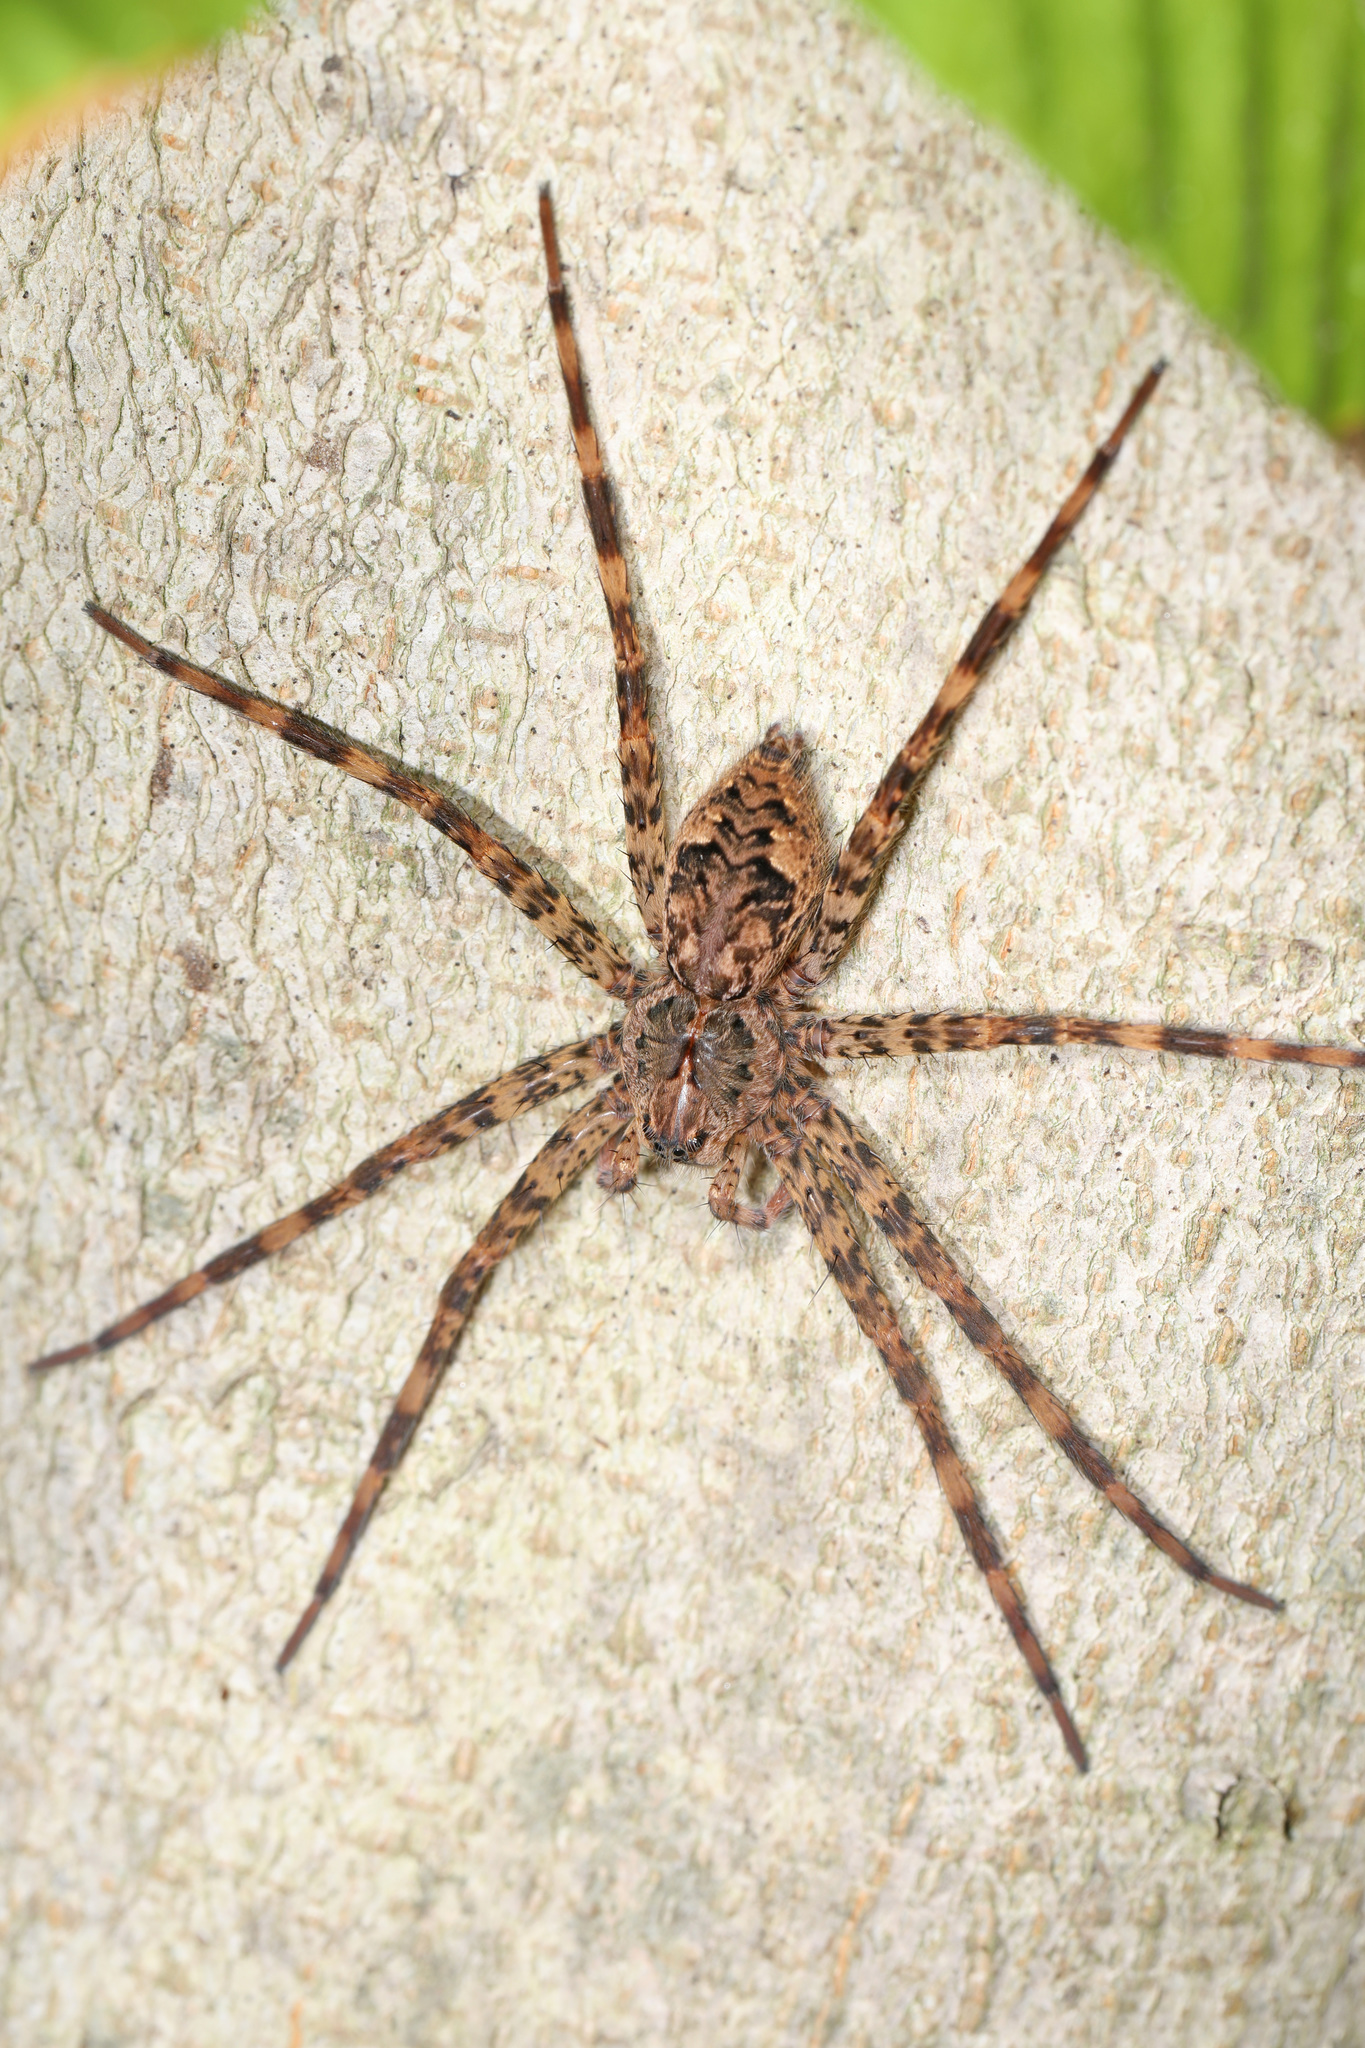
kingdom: Animalia
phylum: Arthropoda
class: Arachnida
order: Araneae
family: Pisauridae
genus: Dolomedes
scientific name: Dolomedes tenebrosus
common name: Dark fishing spider
